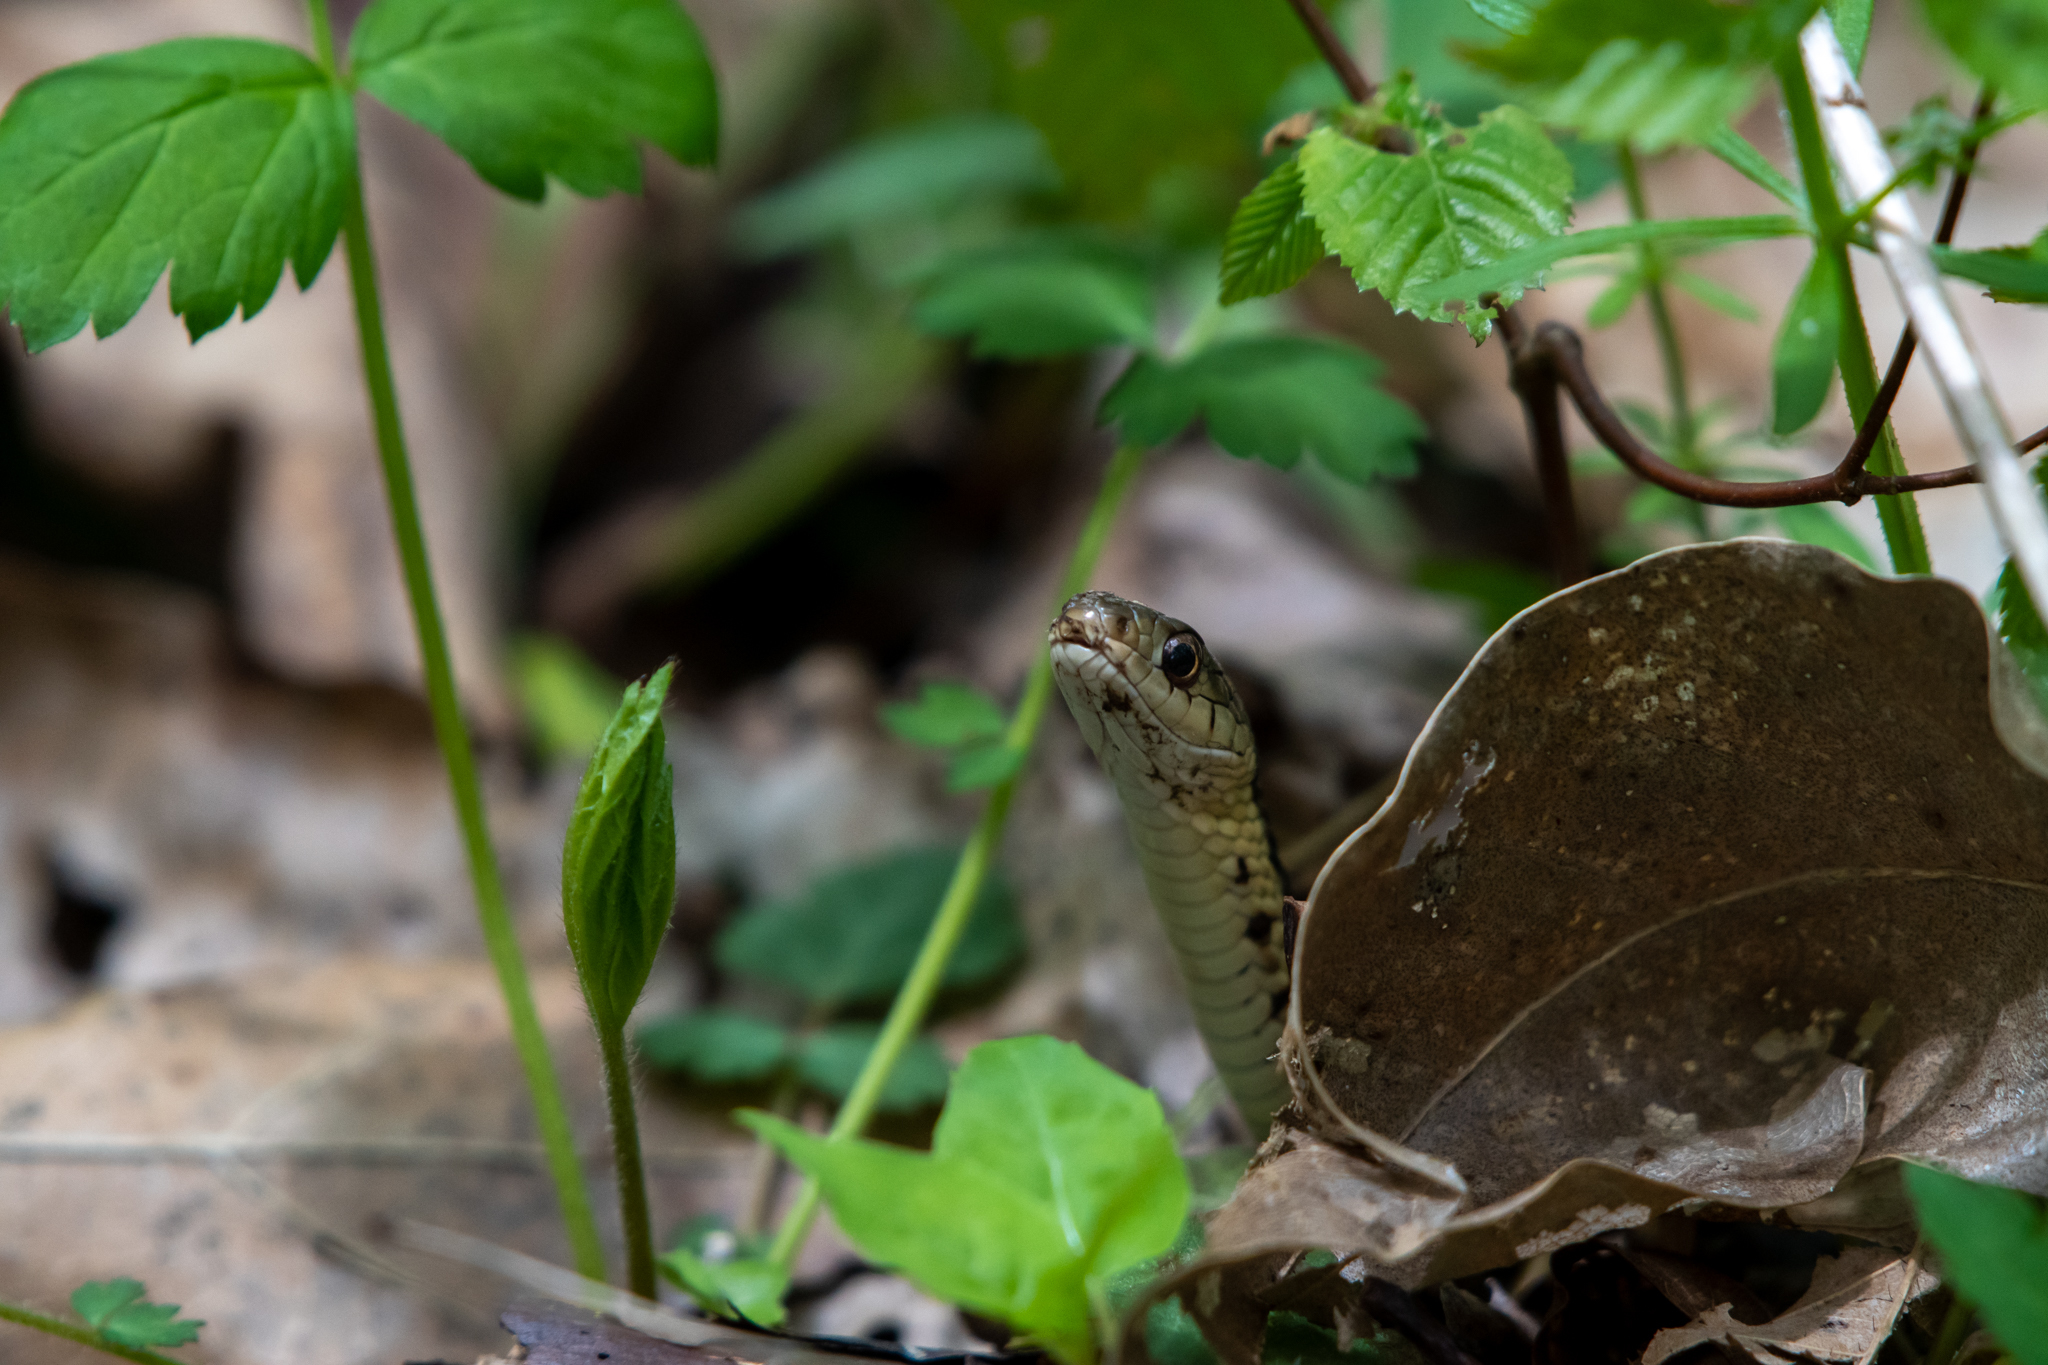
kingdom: Animalia
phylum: Chordata
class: Squamata
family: Colubridae
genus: Thamnophis
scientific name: Thamnophis sirtalis
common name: Common garter snake
